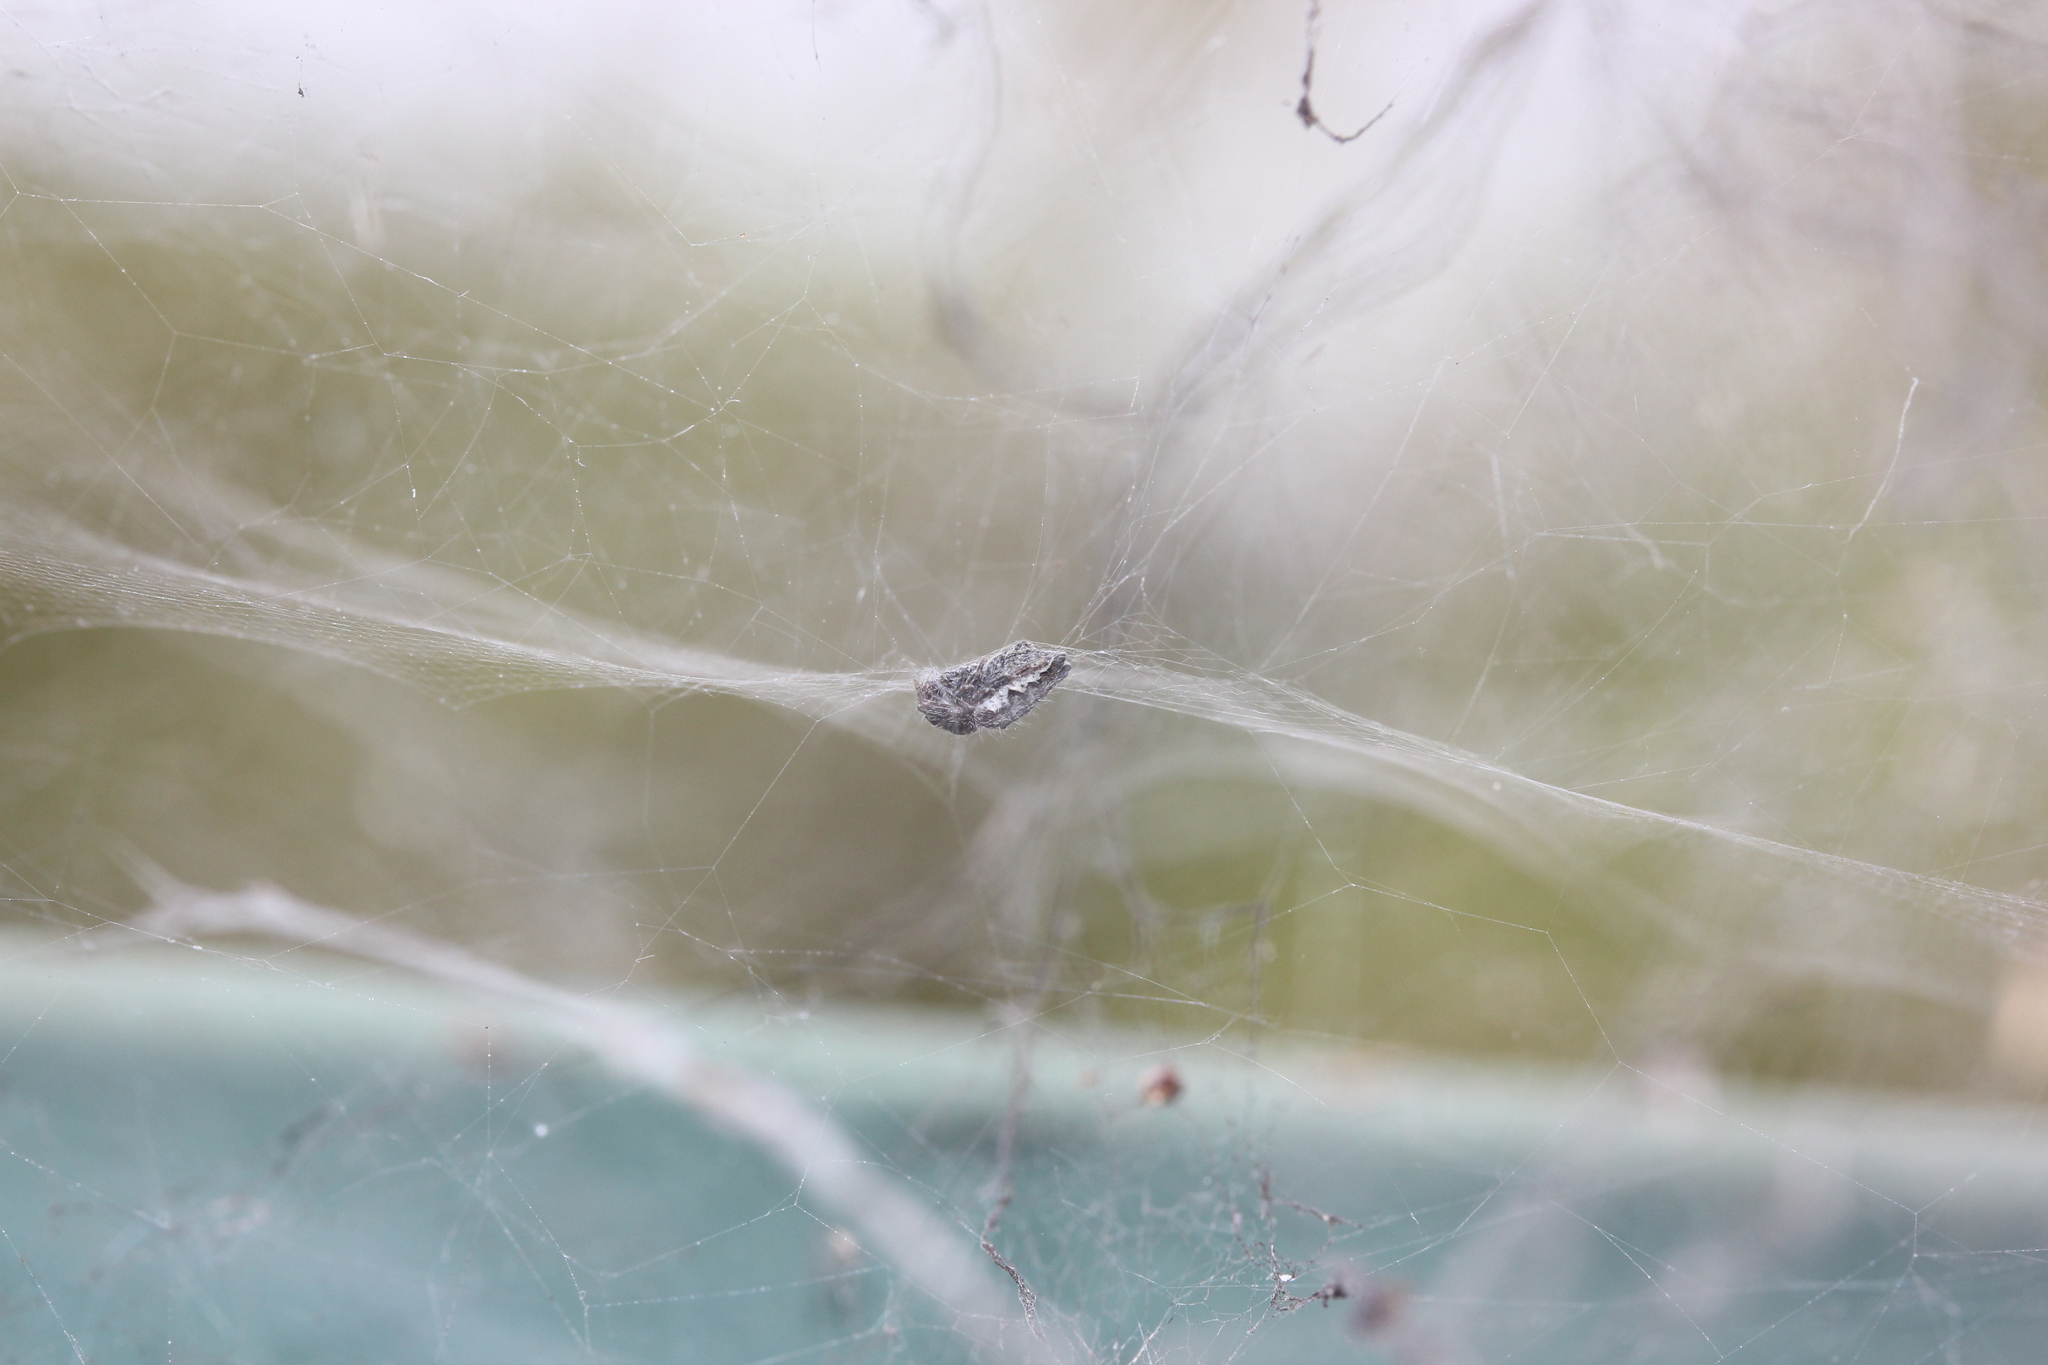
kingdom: Animalia
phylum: Arthropoda
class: Arachnida
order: Araneae
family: Araneidae
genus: Cyrtophora
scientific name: Cyrtophora citricola
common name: Orb weavers
